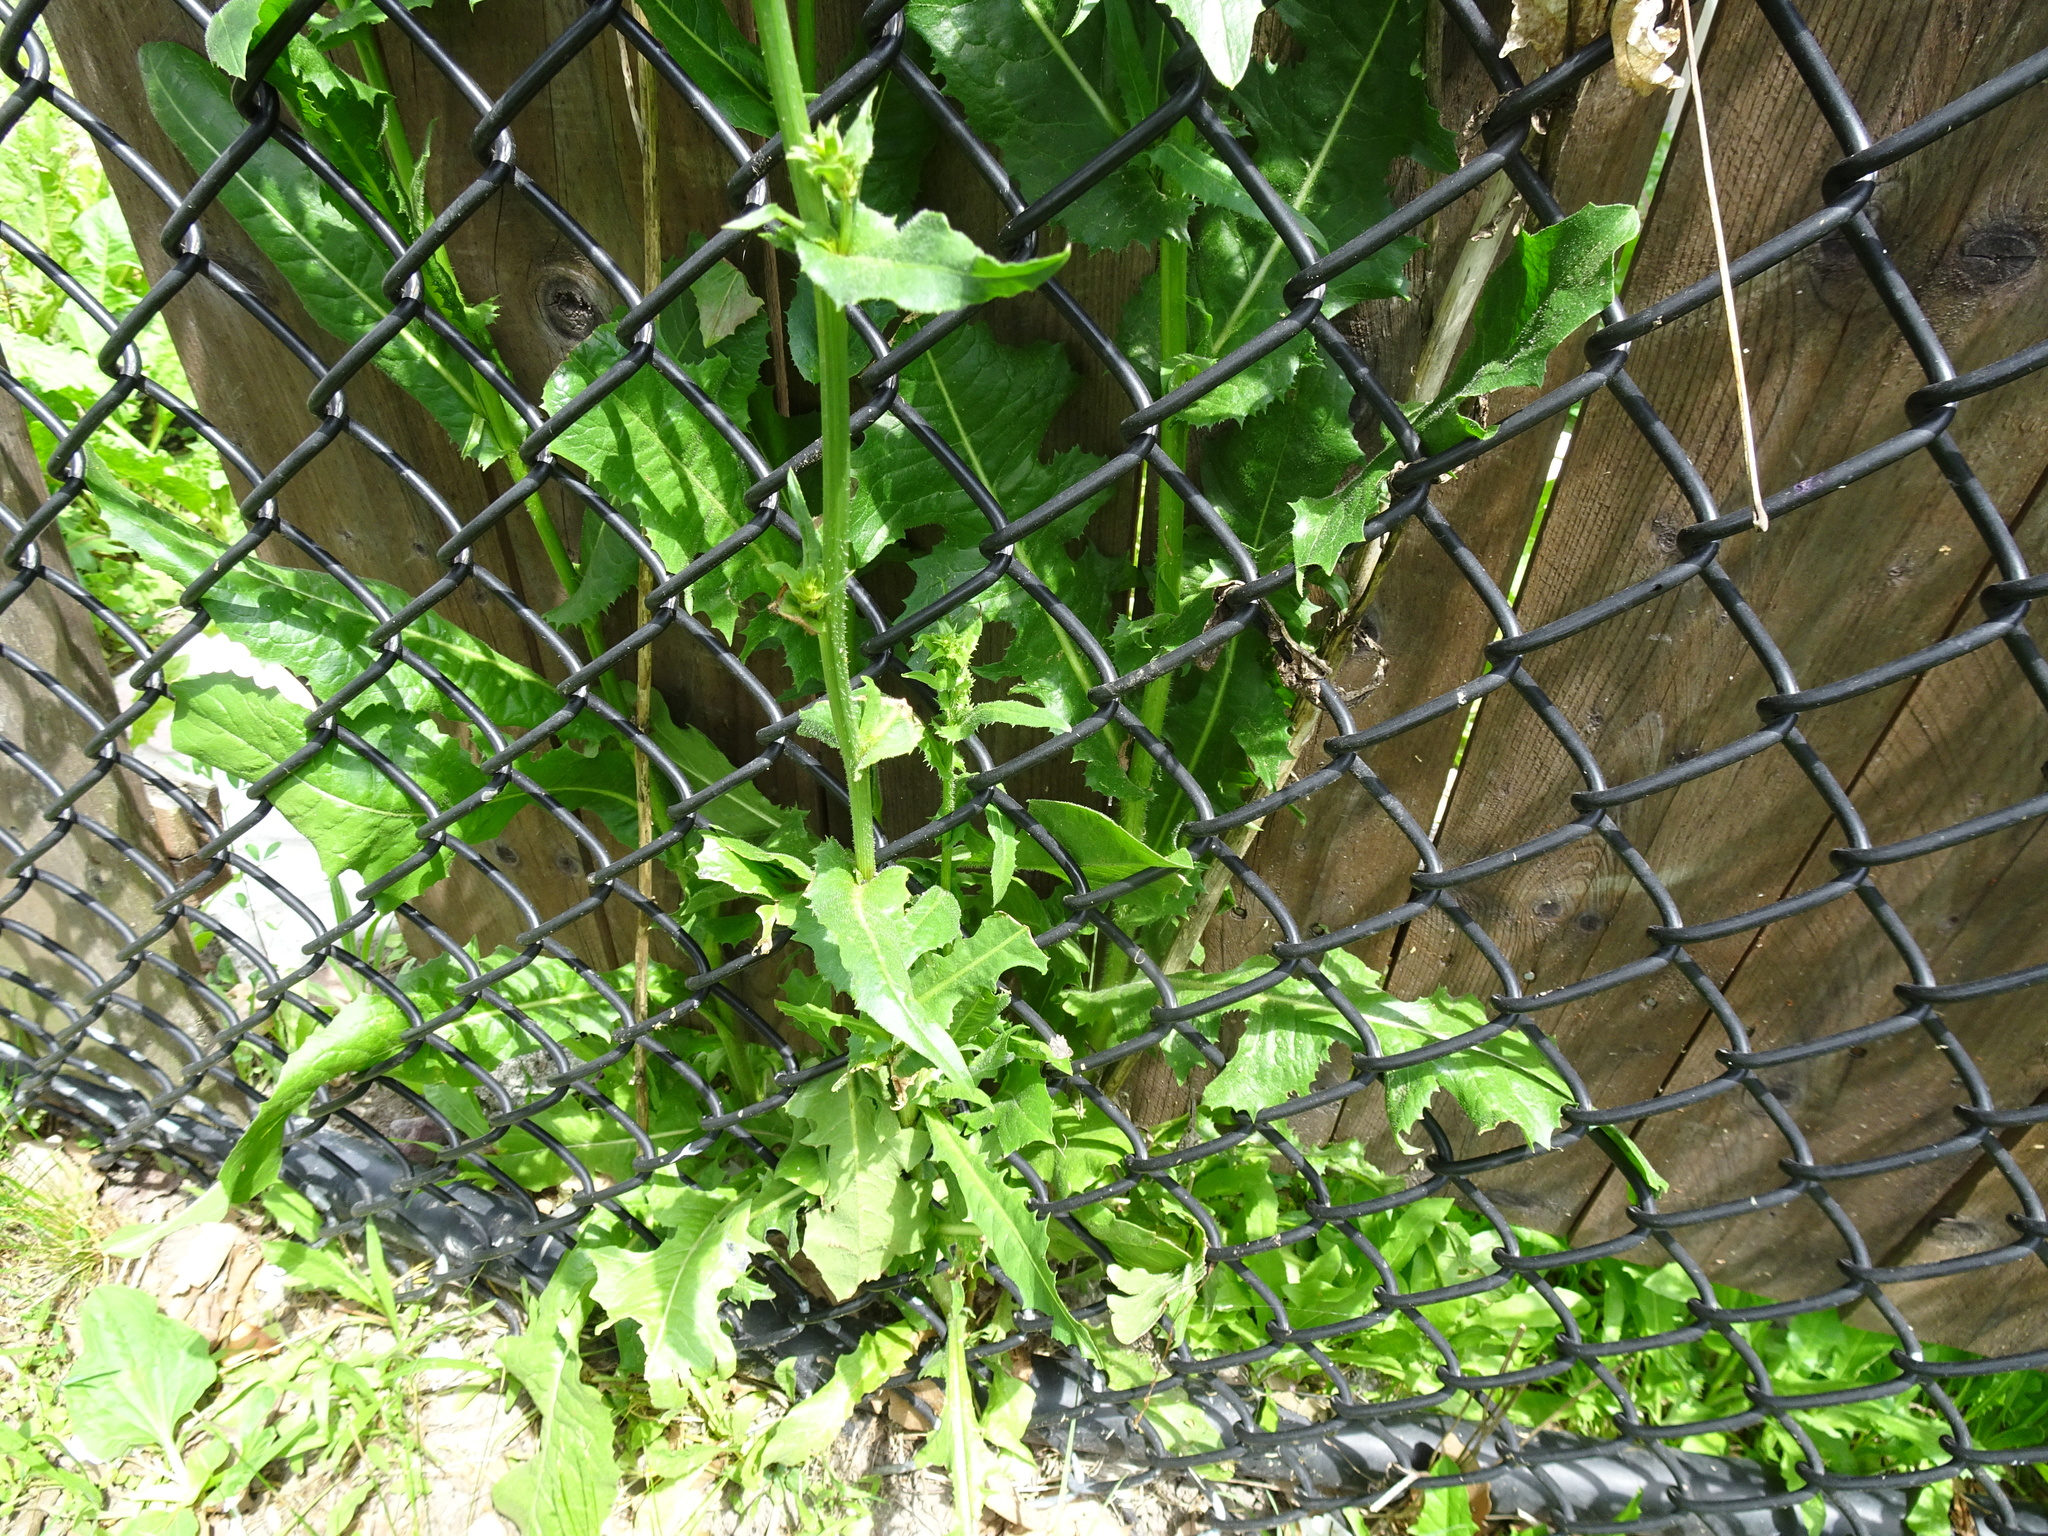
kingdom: Plantae
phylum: Tracheophyta
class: Magnoliopsida
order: Asterales
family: Asteraceae
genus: Cichorium
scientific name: Cichorium intybus
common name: Chicory
